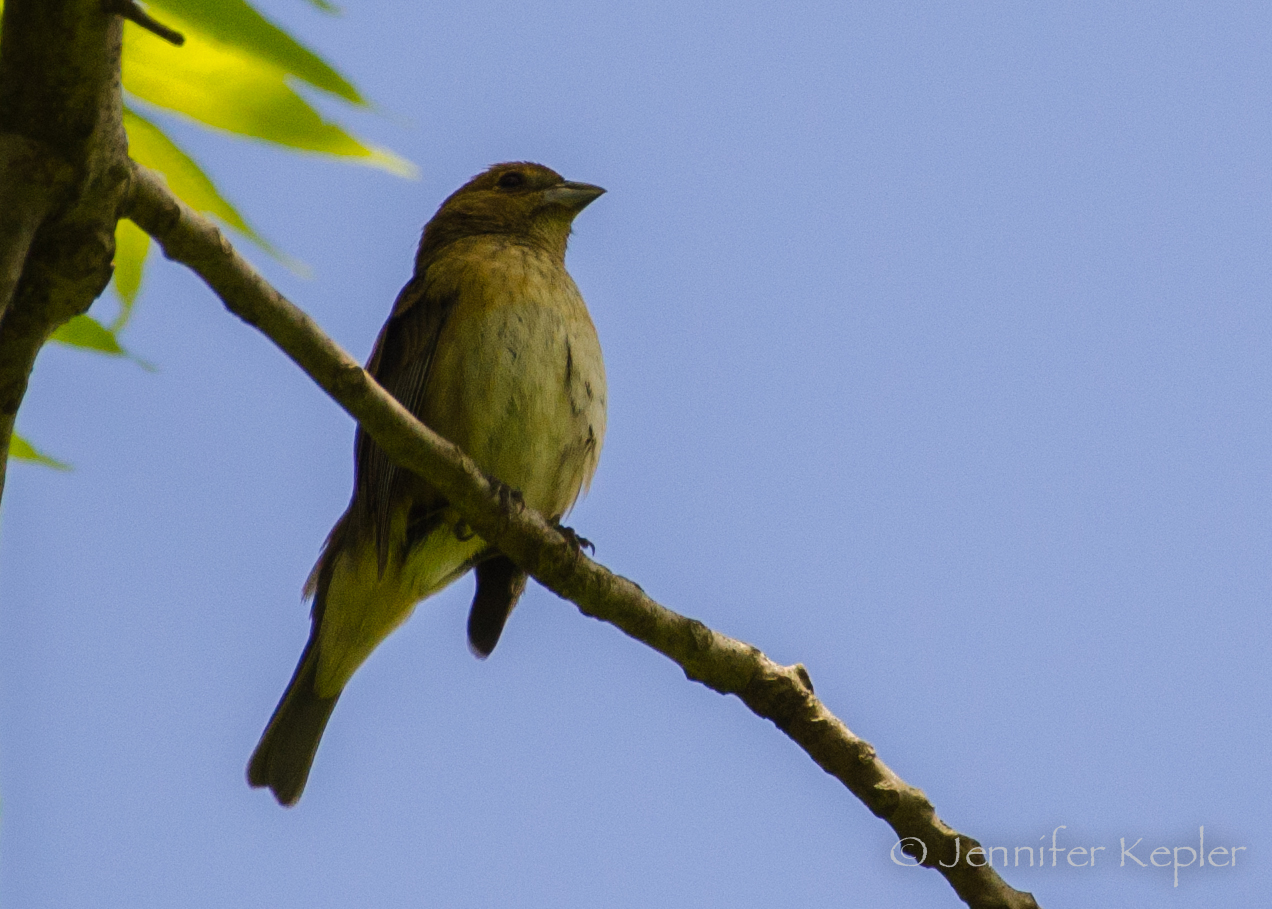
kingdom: Animalia
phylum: Chordata
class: Aves
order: Passeriformes
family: Cardinalidae
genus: Passerina
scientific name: Passerina cyanea
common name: Indigo bunting
